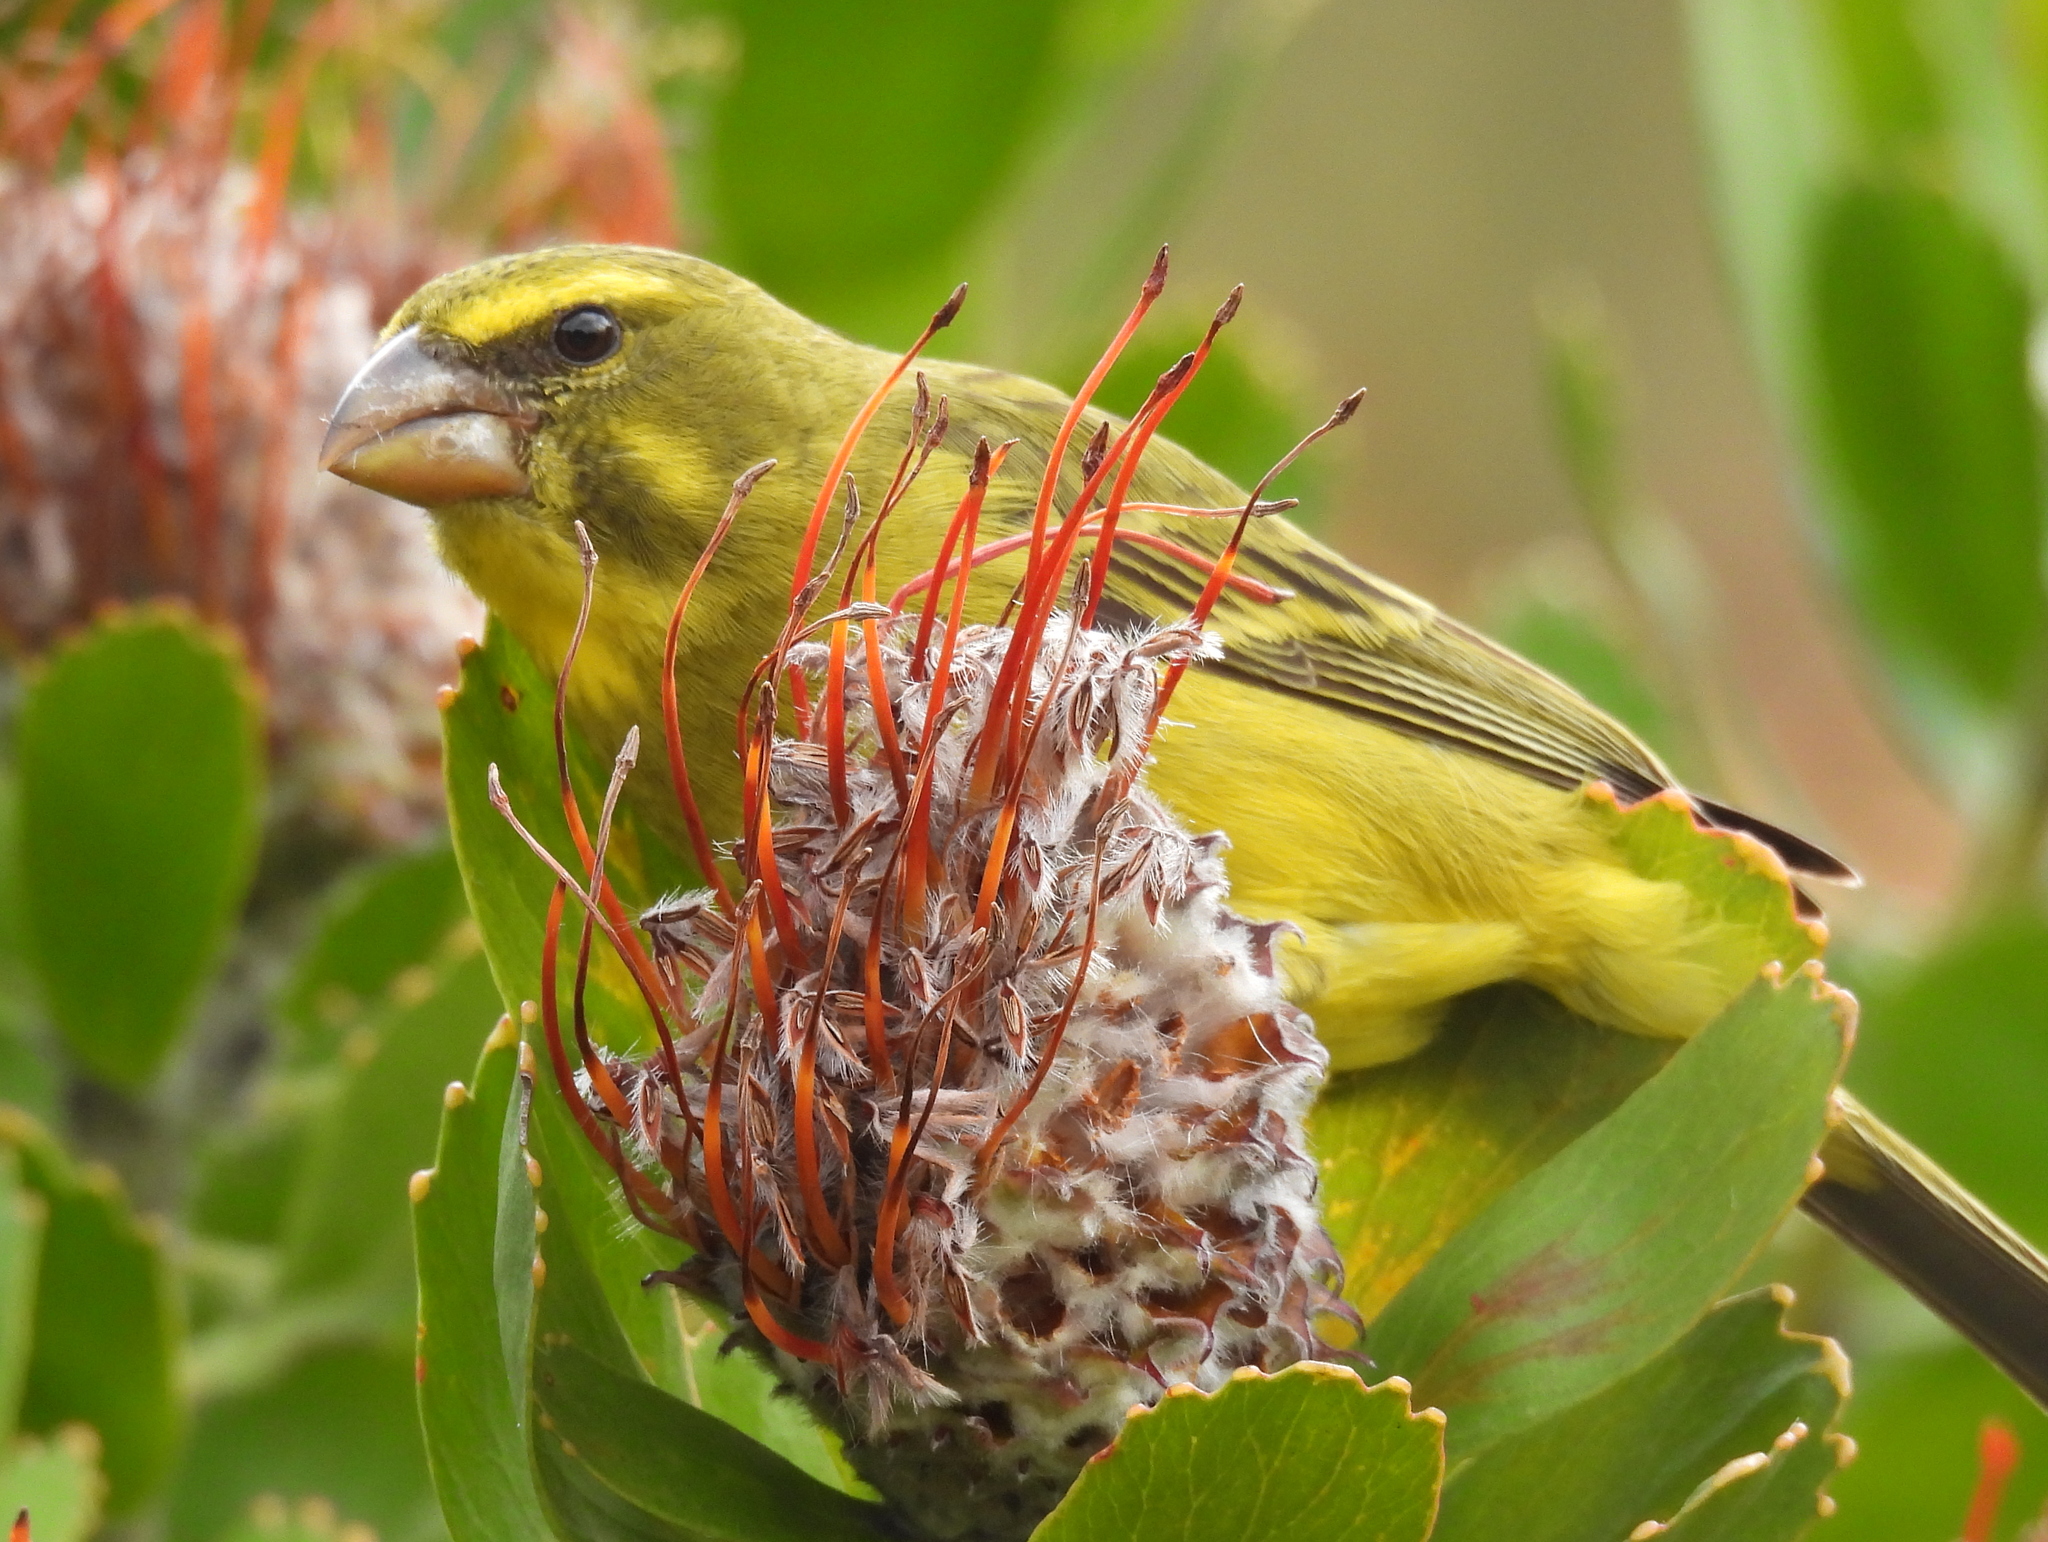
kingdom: Animalia
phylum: Chordata
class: Aves
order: Passeriformes
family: Fringillidae
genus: Crithagra
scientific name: Crithagra sulphurata
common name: Brimstone canary
